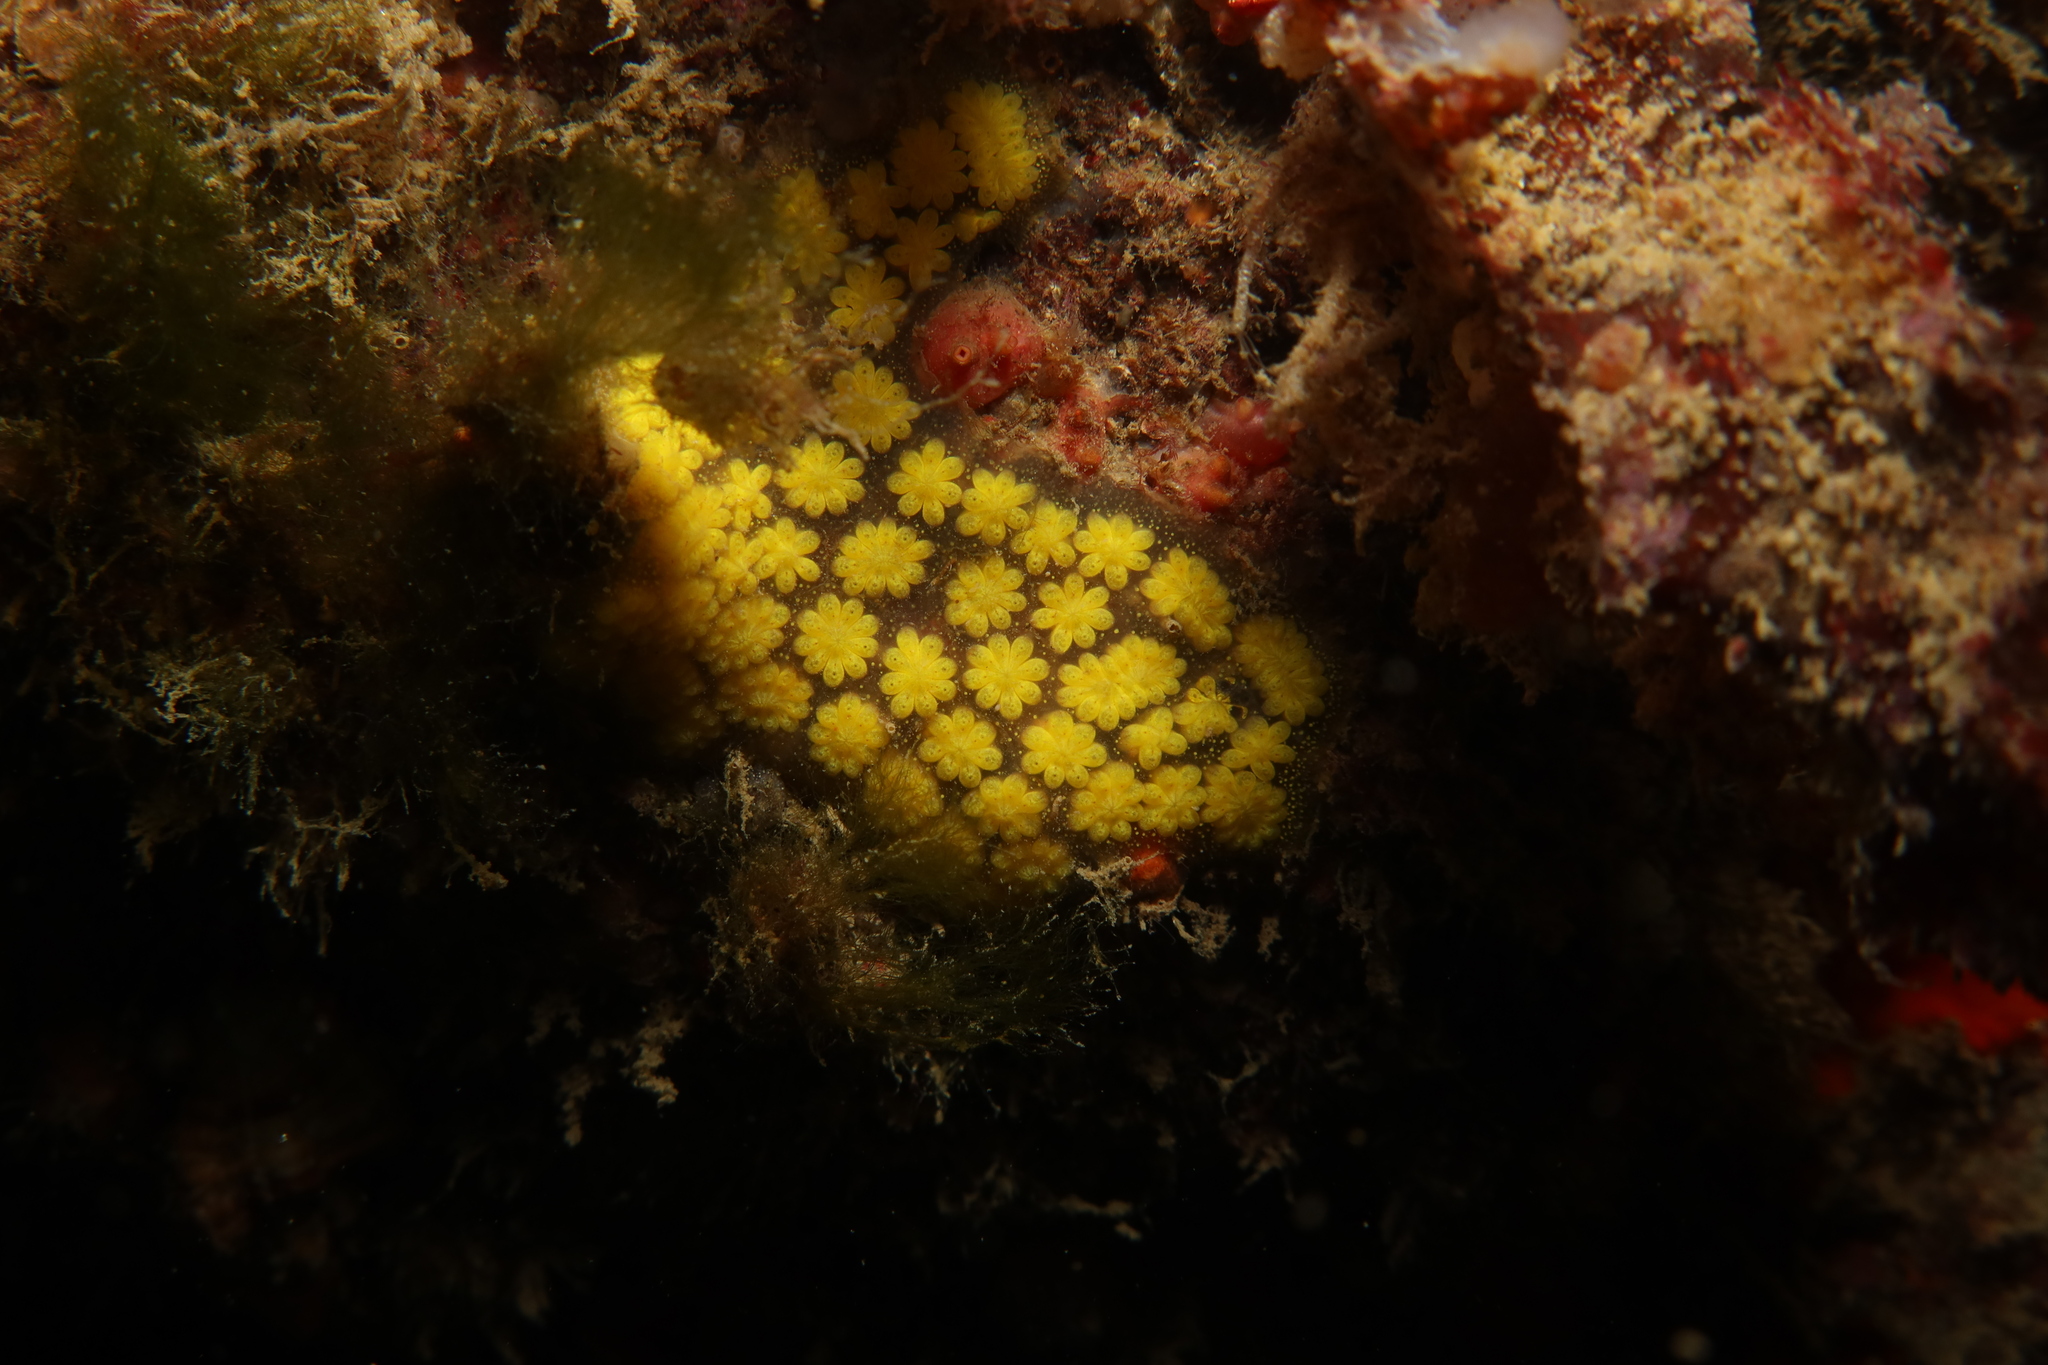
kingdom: Animalia
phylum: Chordata
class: Ascidiacea
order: Stolidobranchia
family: Styelidae
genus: Botryllus
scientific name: Botryllus schlosseri
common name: Golden star tunicate
